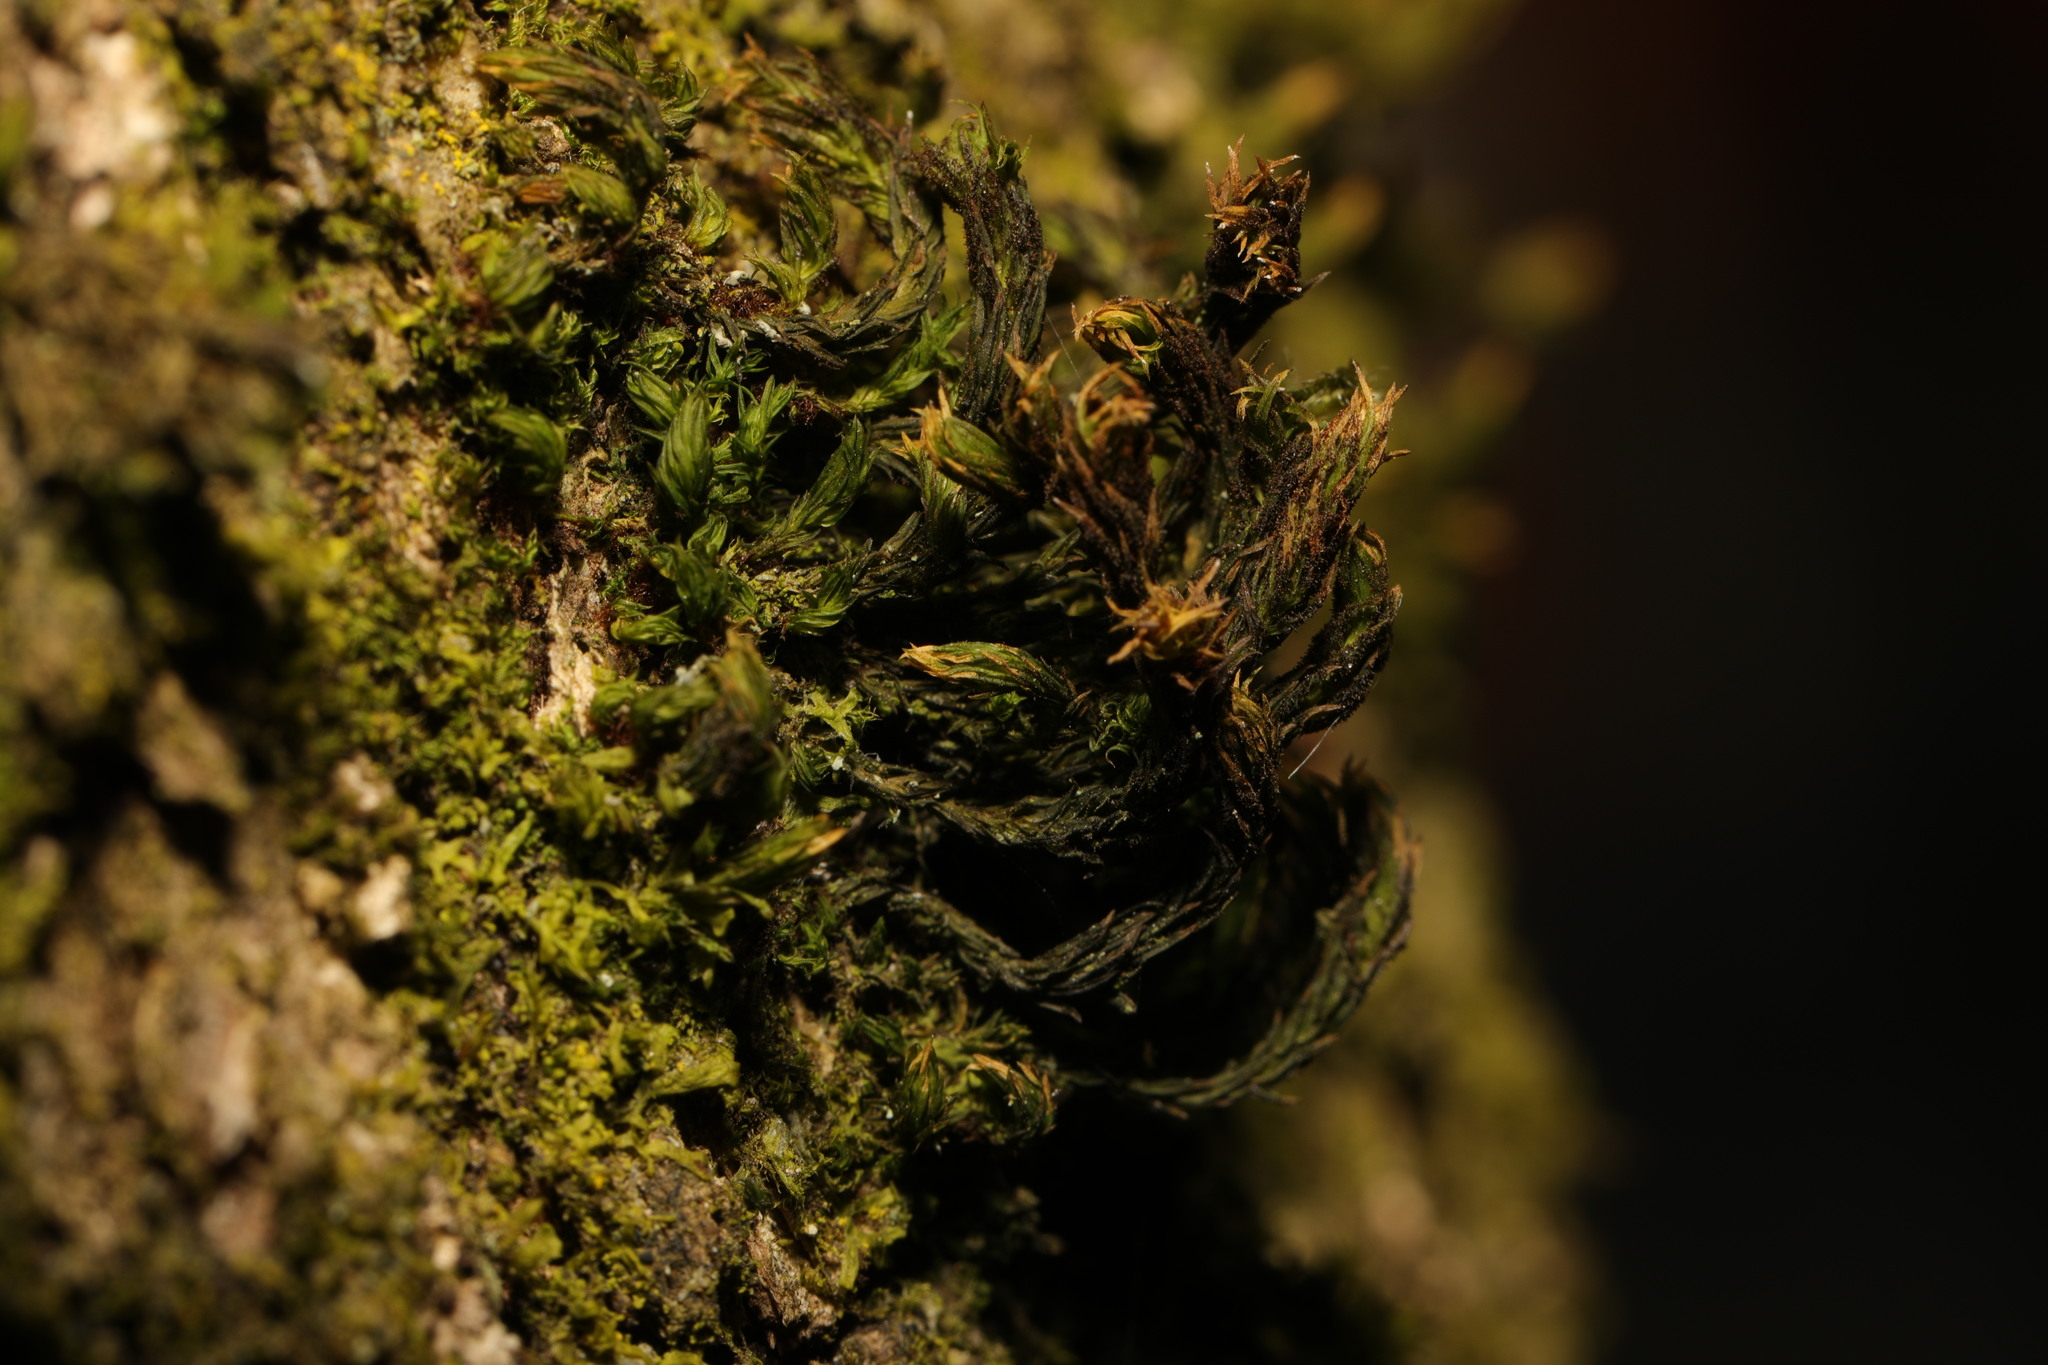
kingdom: Plantae
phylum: Bryophyta
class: Bryopsida
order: Orthotrichales
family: Orthotrichaceae
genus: Pulvigera
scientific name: Pulvigera lyellii
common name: Lyell's bristle-moss
